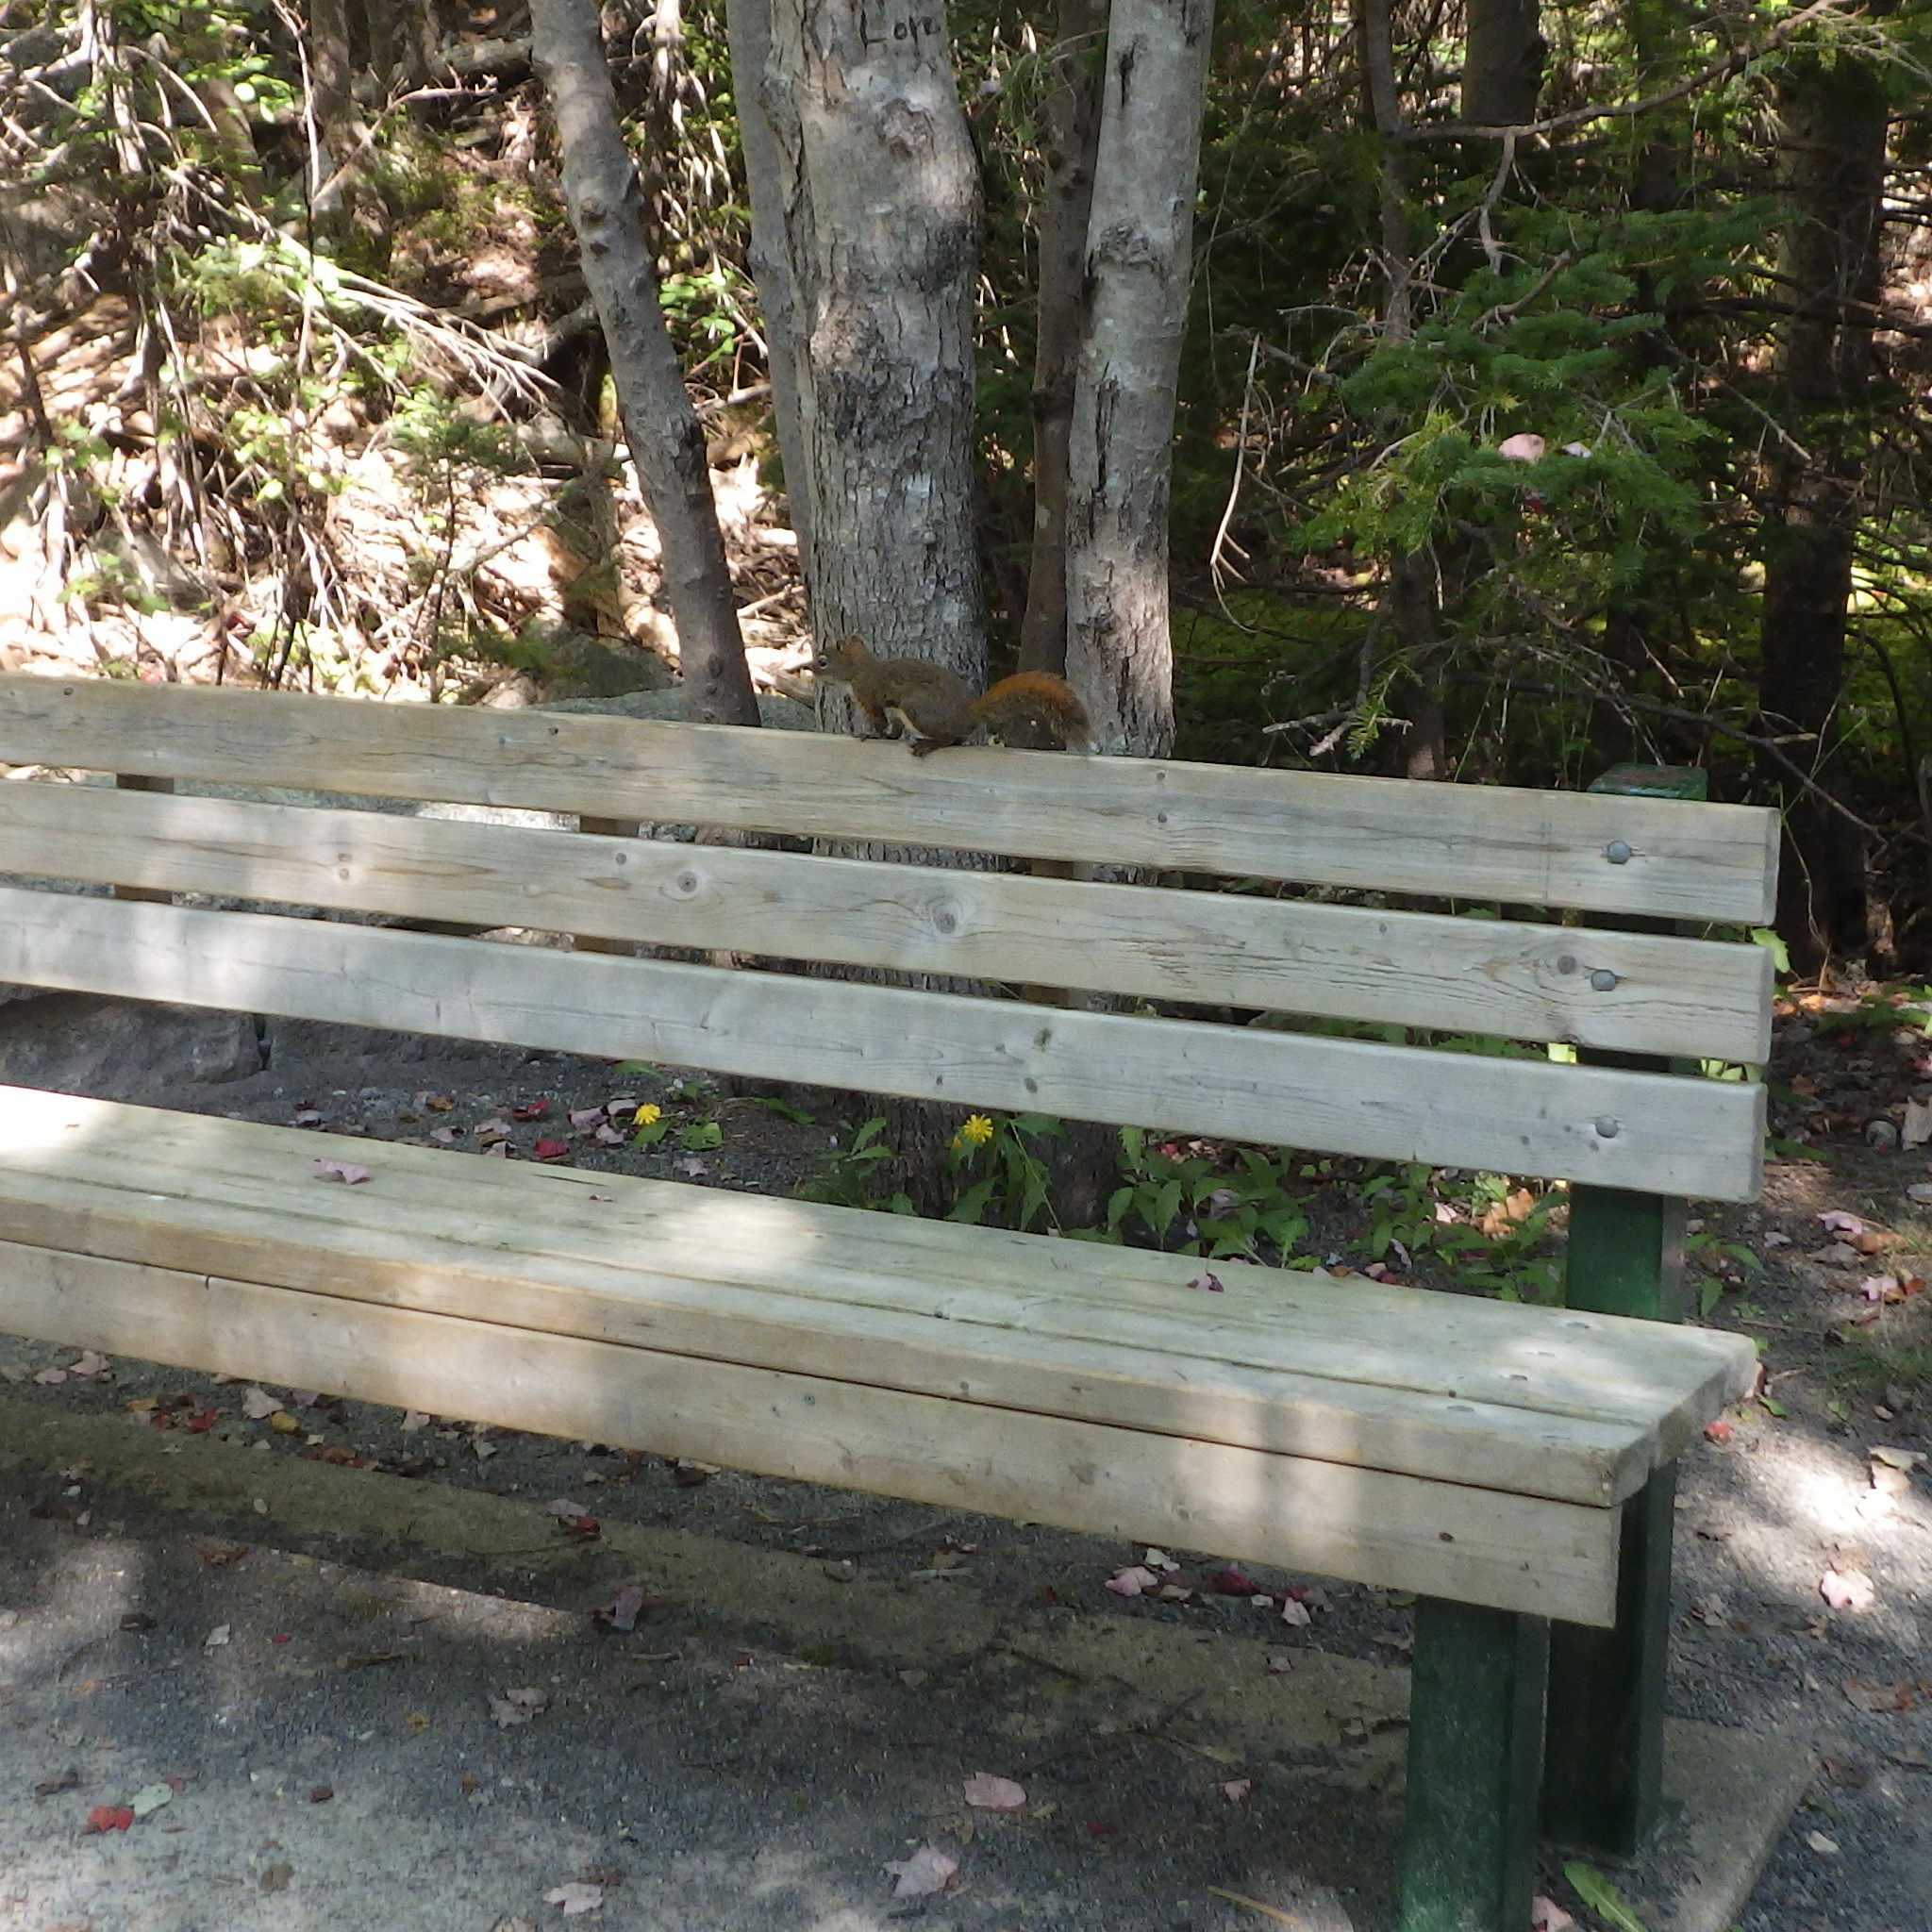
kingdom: Animalia
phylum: Chordata
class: Mammalia
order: Rodentia
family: Sciuridae
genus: Tamiasciurus
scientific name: Tamiasciurus hudsonicus
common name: Red squirrel
